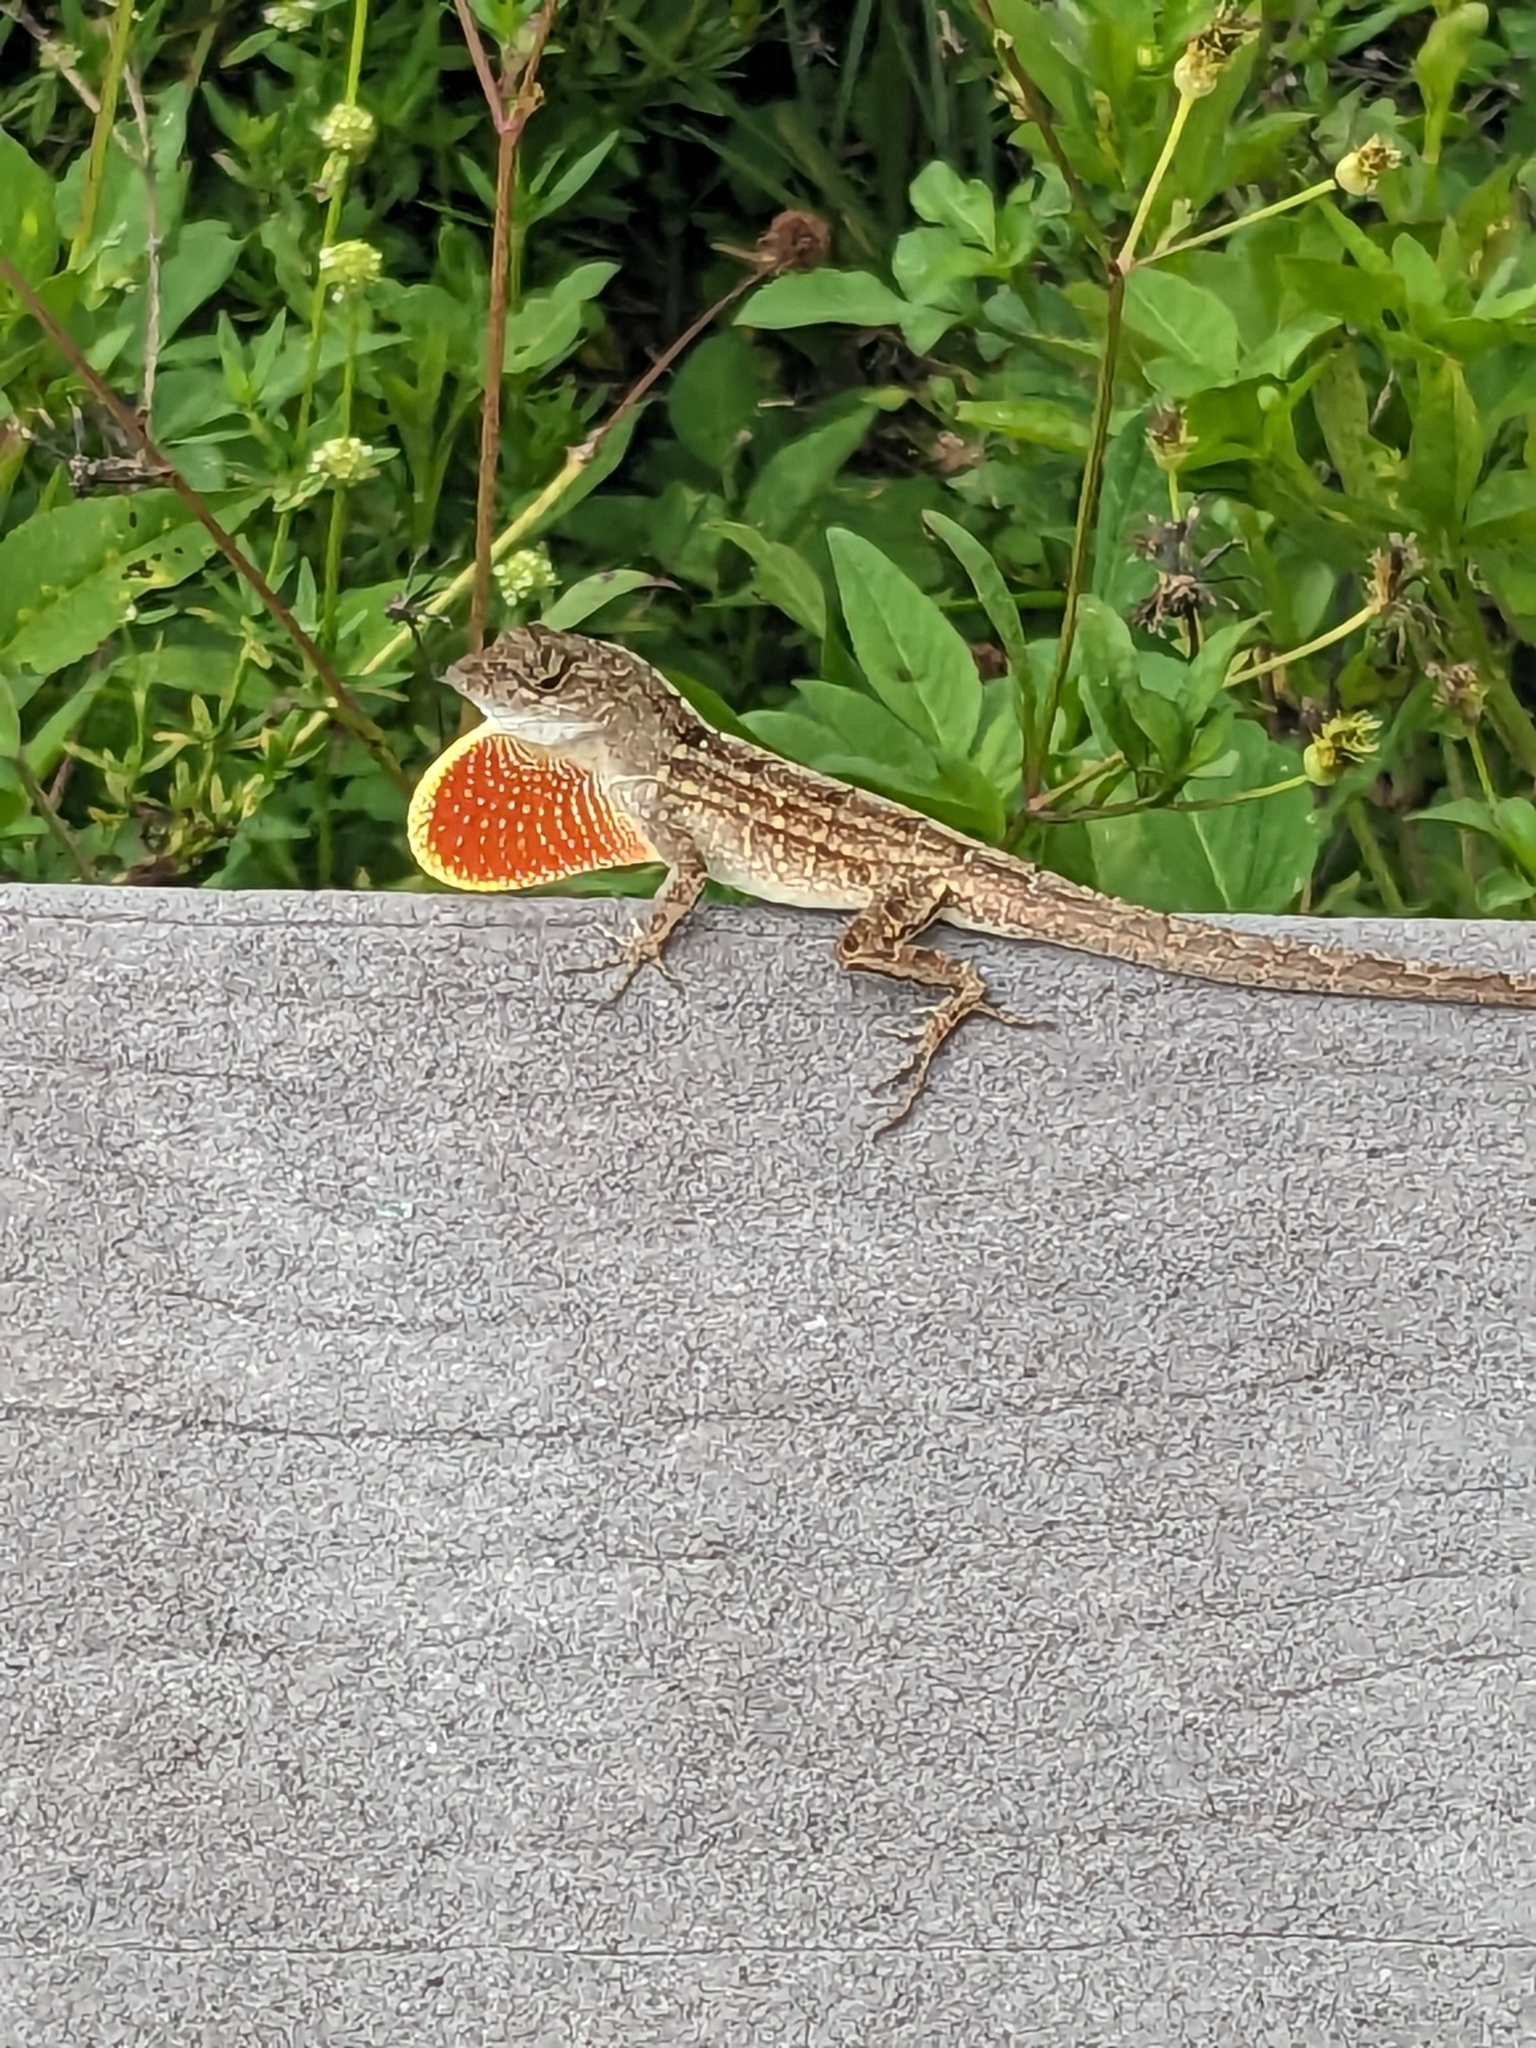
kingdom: Animalia
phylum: Chordata
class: Squamata
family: Dactyloidae
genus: Anolis
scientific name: Anolis sagrei
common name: Brown anole
